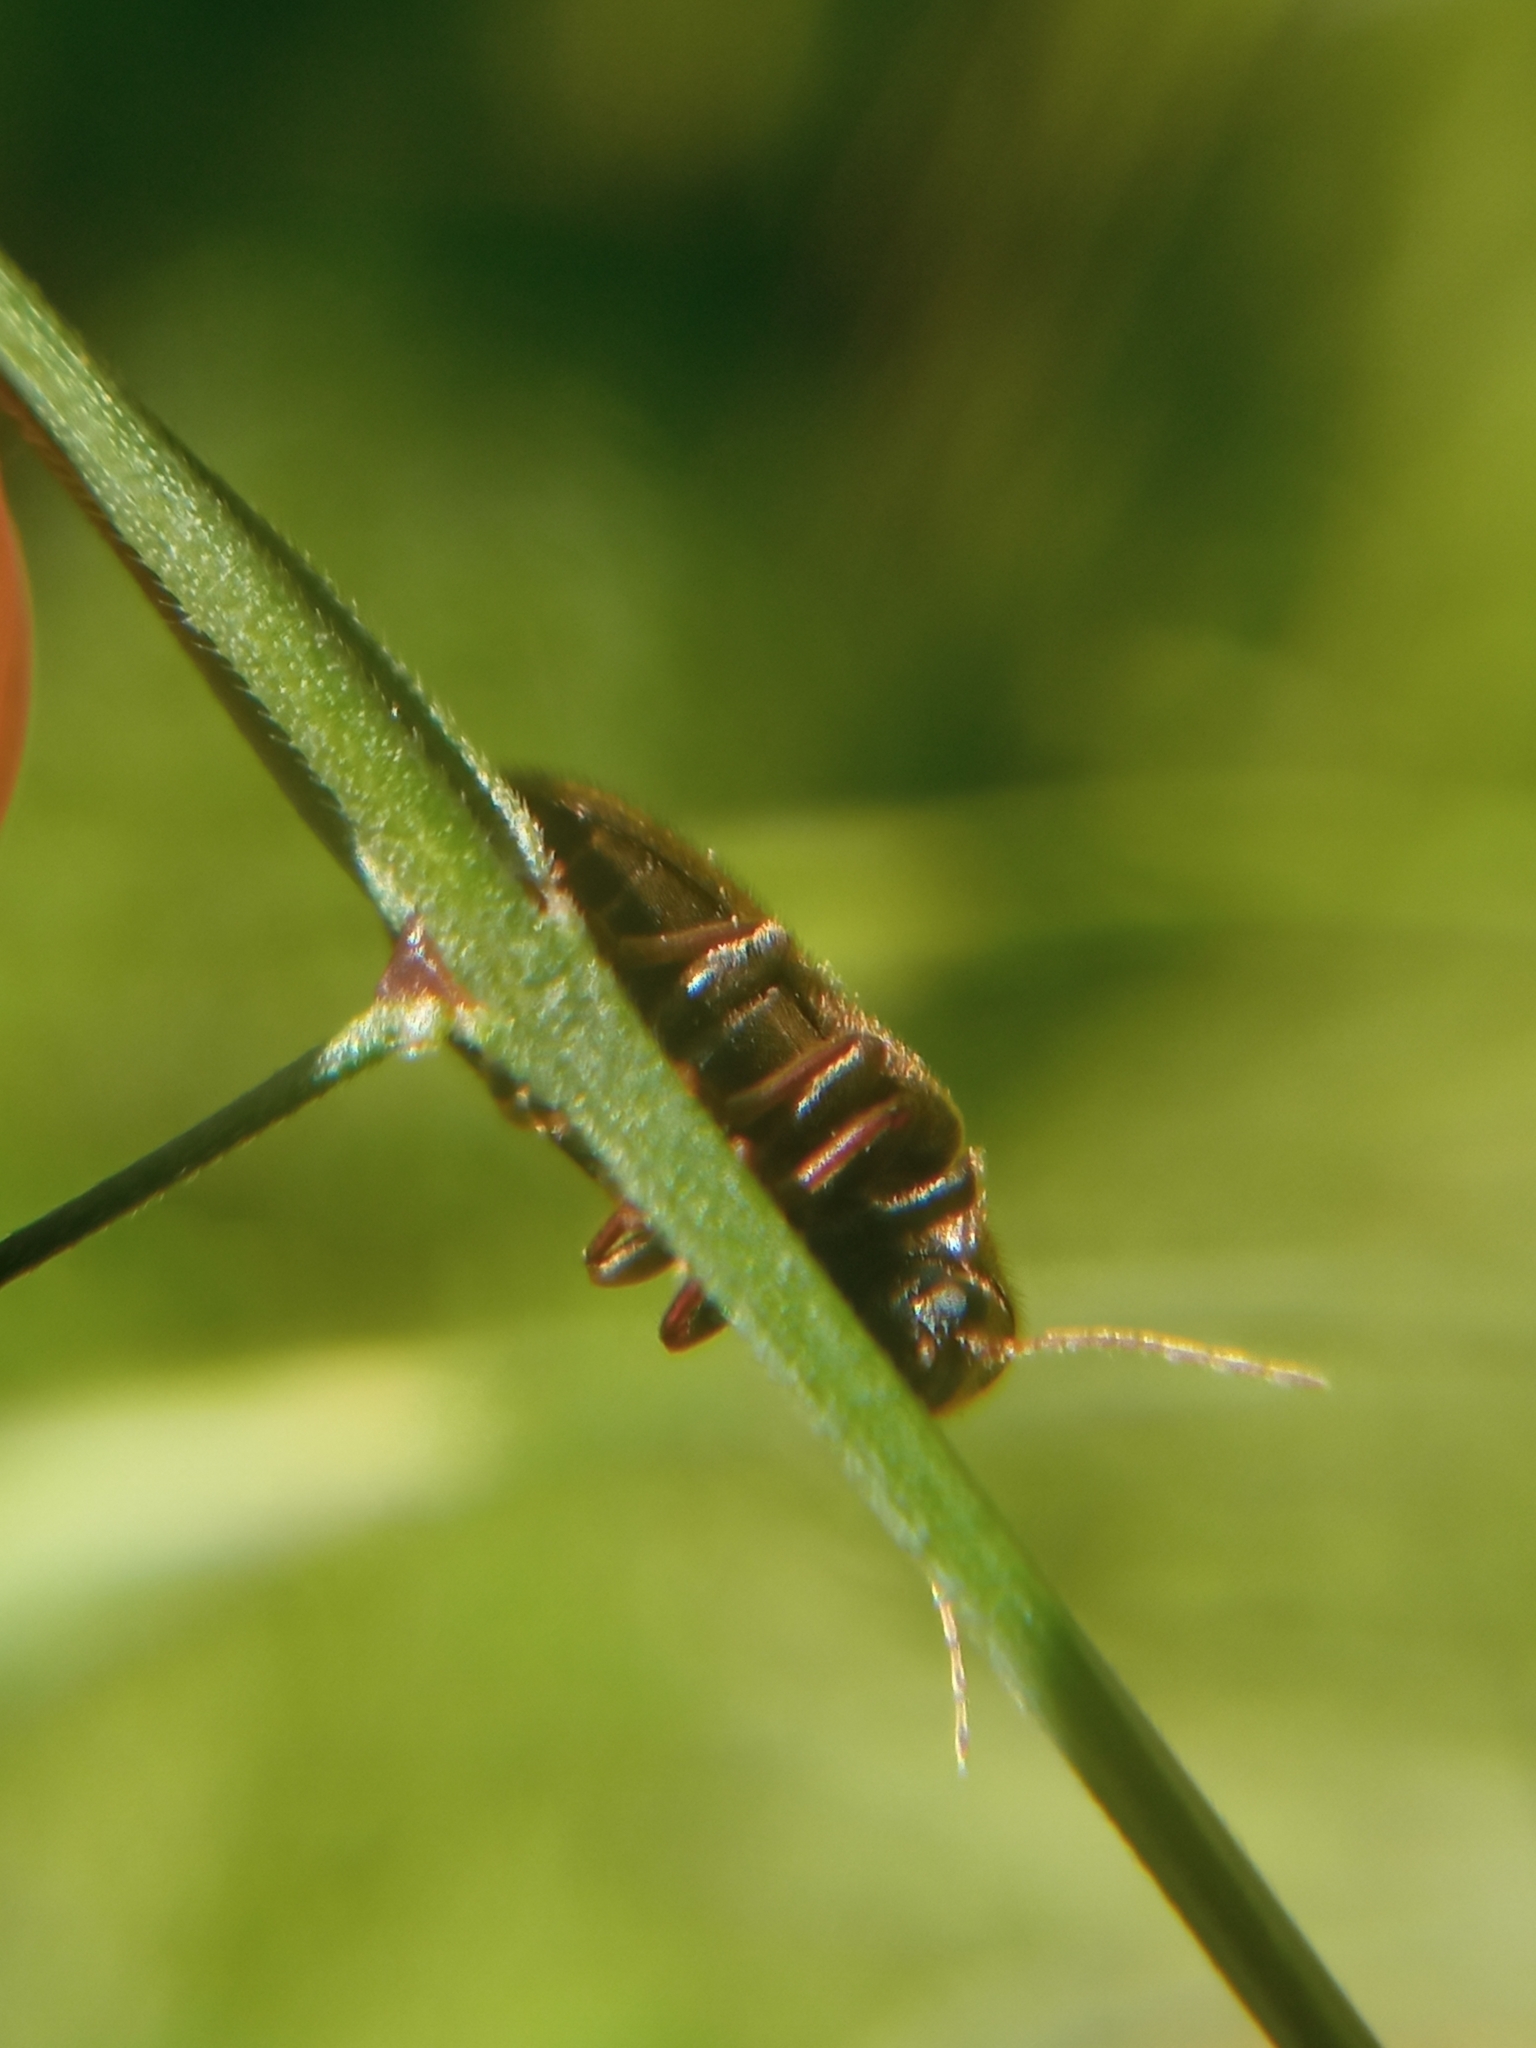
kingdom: Animalia
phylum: Arthropoda
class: Insecta
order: Coleoptera
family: Ptinidae
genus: Hyperisus
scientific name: Hyperisus plumbeus
